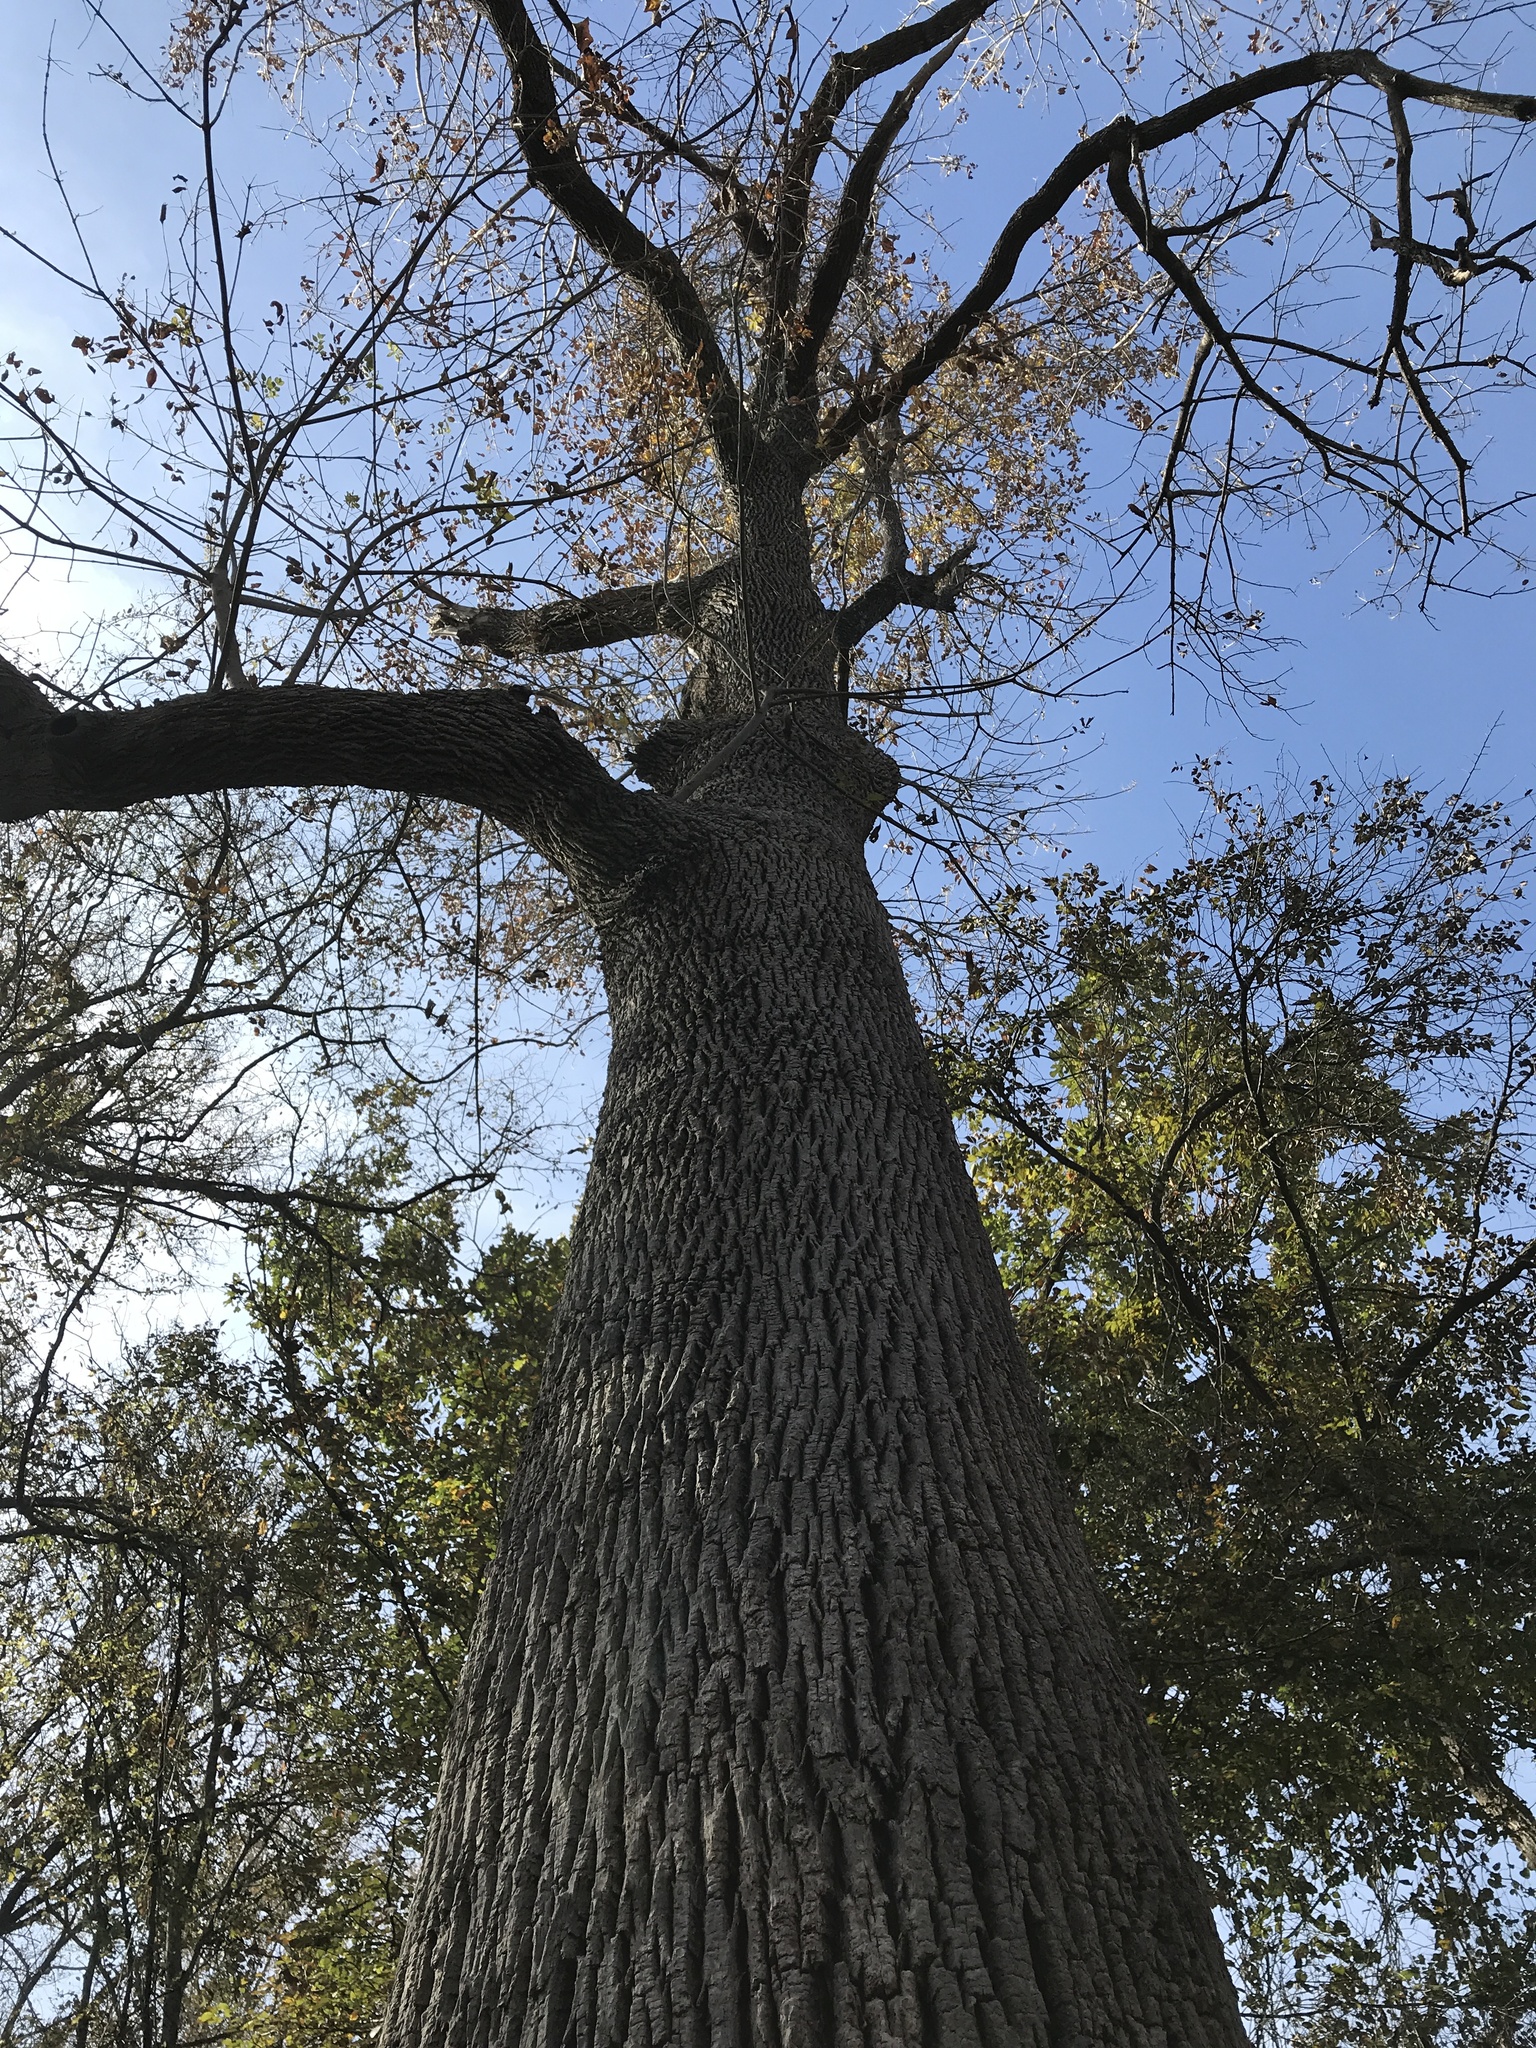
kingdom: Plantae
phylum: Tracheophyta
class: Magnoliopsida
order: Lamiales
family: Oleaceae
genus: Fraxinus
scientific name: Fraxinus pennsylvanica
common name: Green ash
